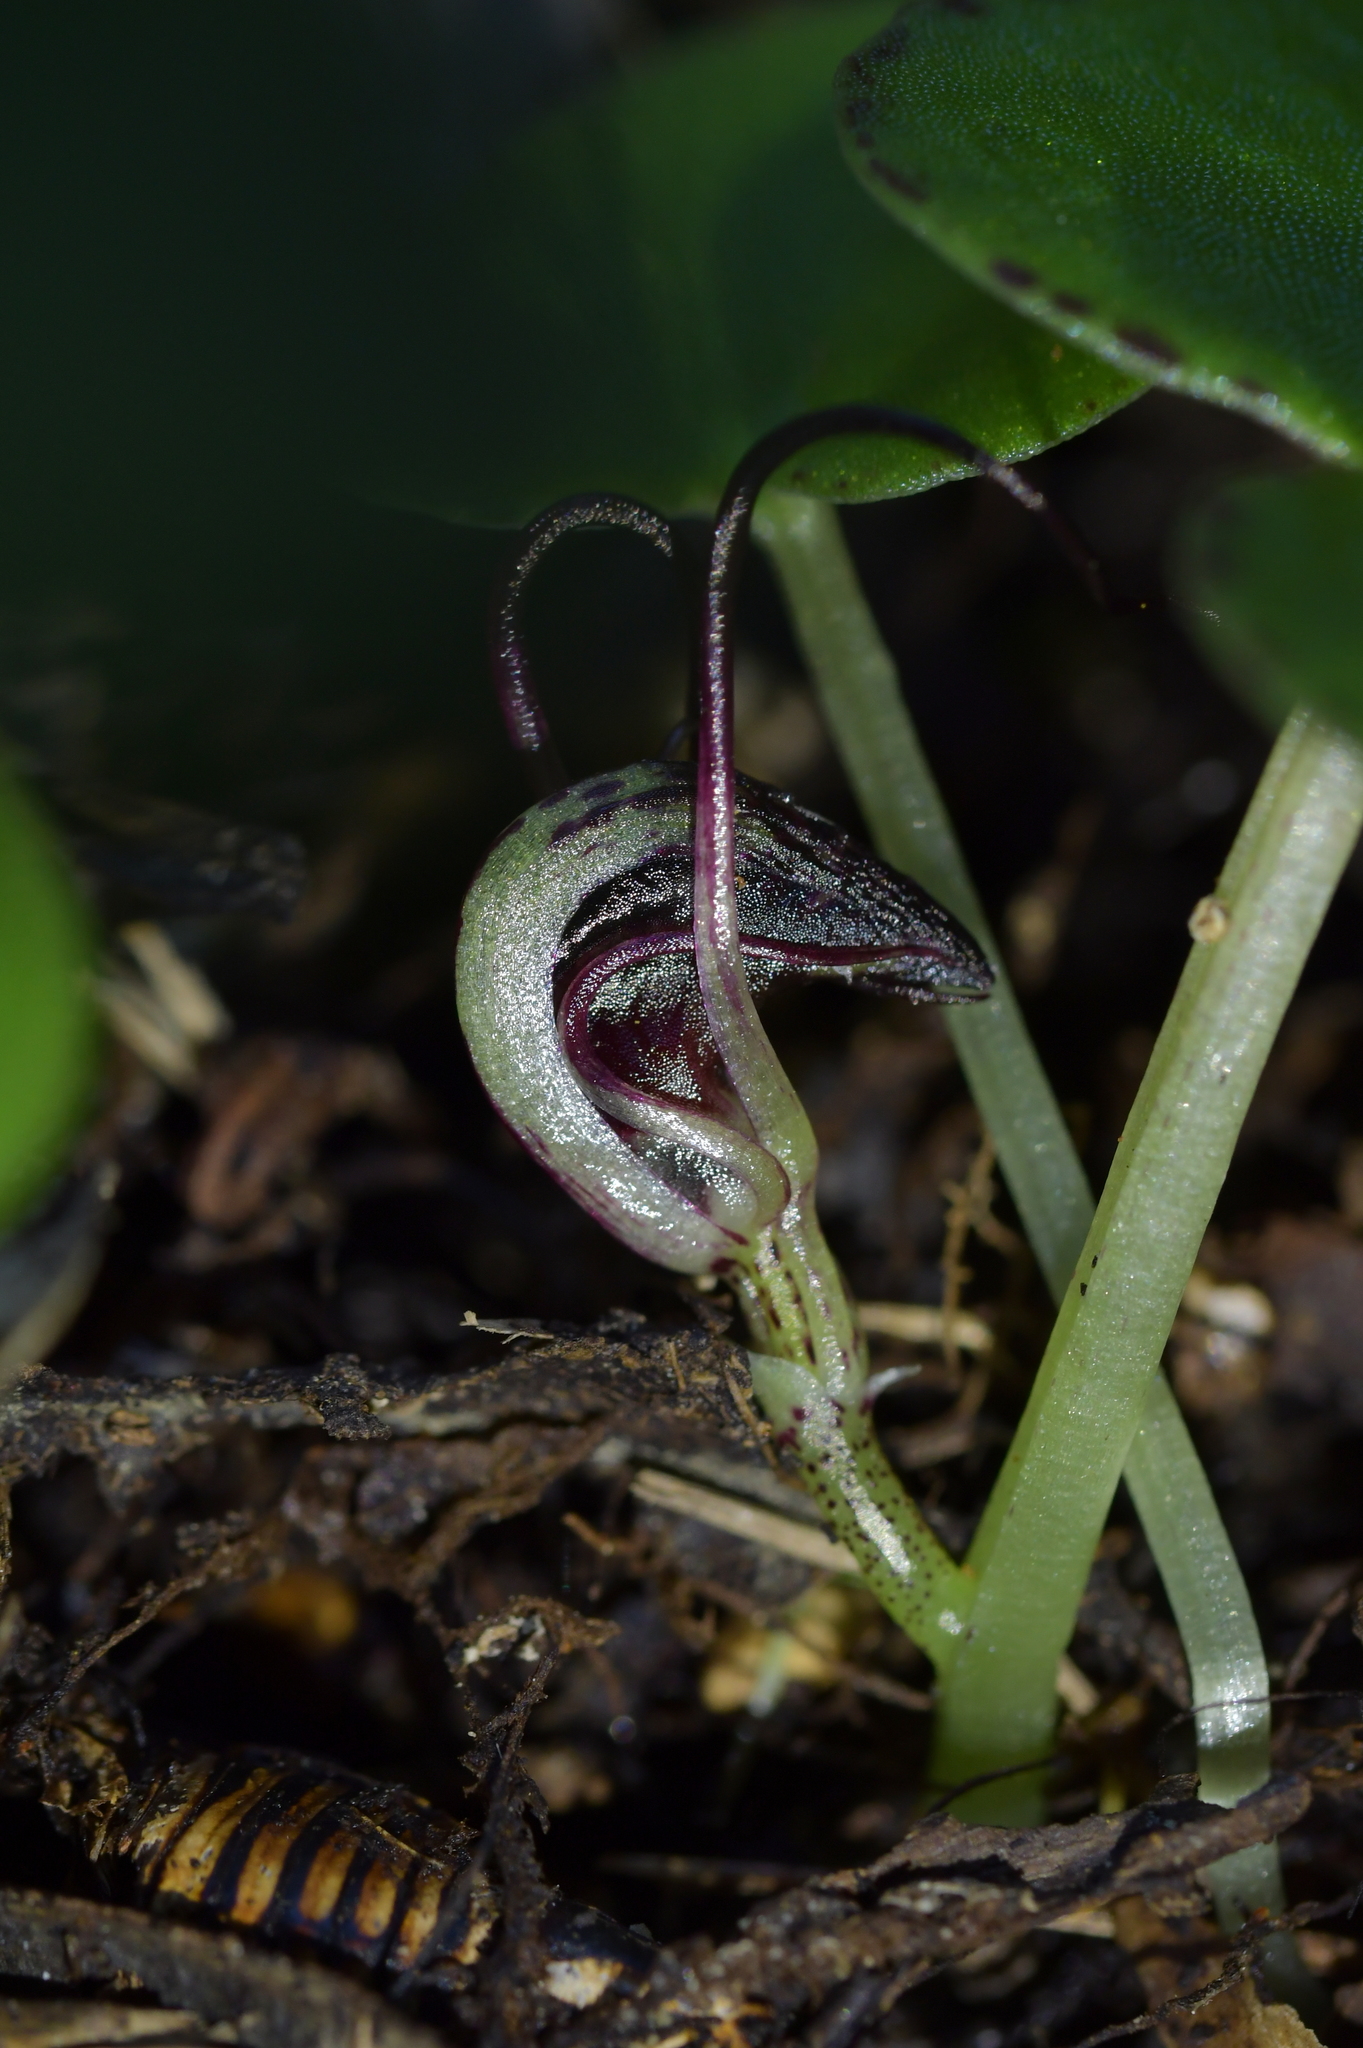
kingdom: Plantae
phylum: Tracheophyta
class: Liliopsida
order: Asparagales
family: Orchidaceae
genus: Corybas
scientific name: Corybas macranthus
